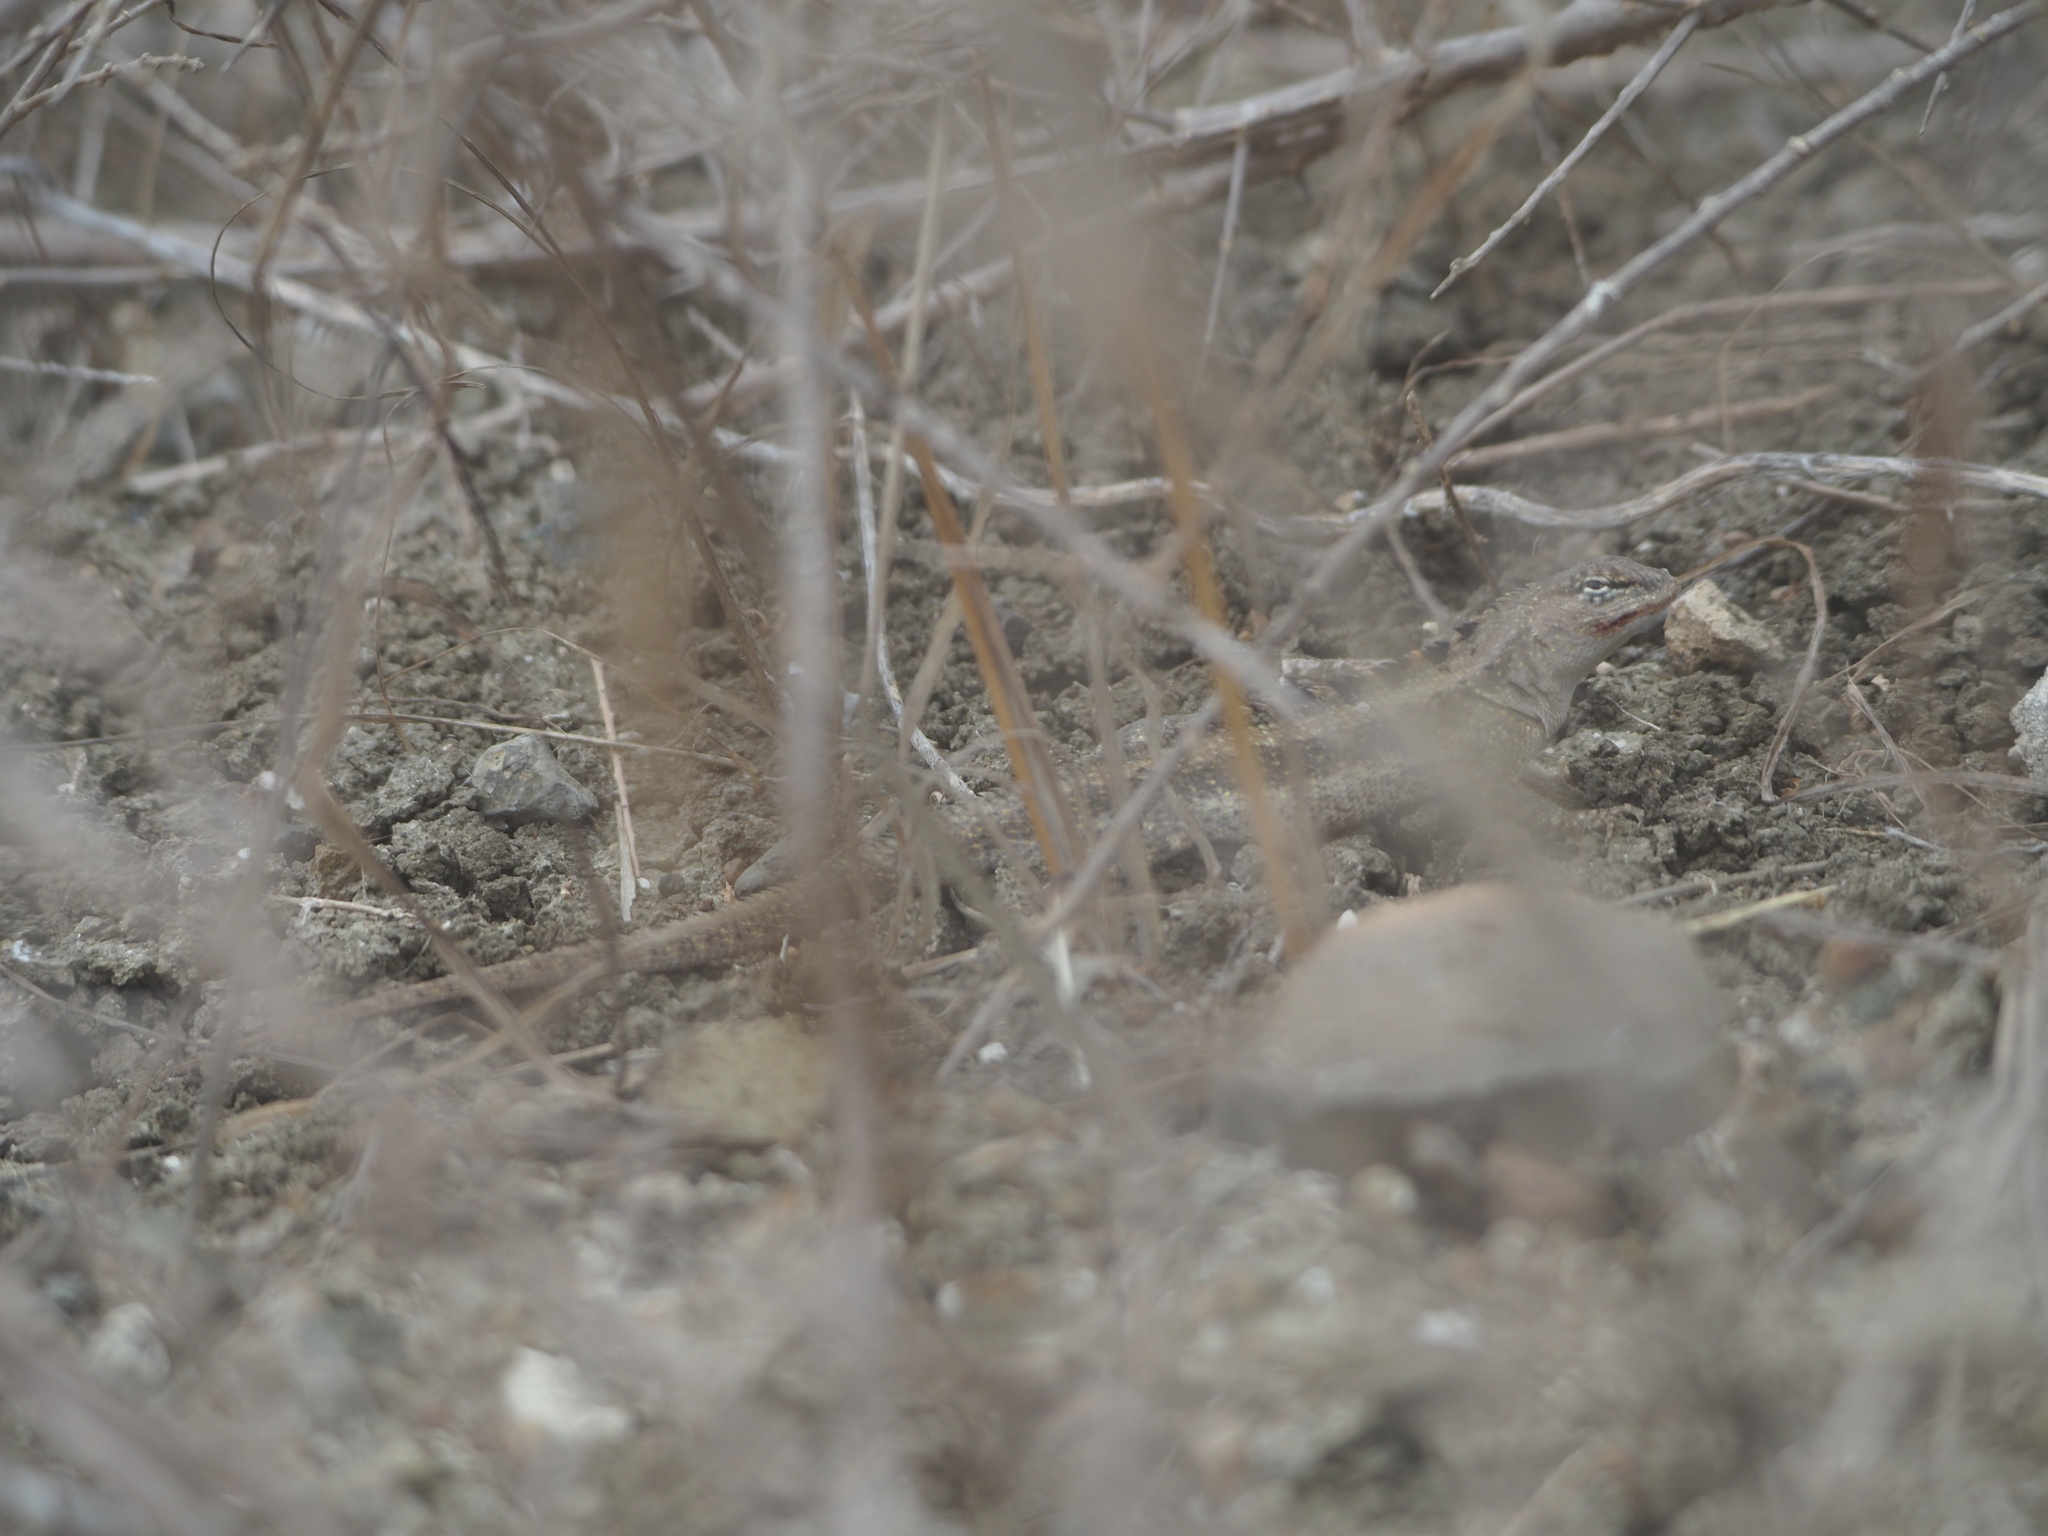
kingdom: Animalia
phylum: Chordata
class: Squamata
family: Tropiduridae
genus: Microlophus
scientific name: Microlophus occipitalis
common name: Knobbed pacific iguana
